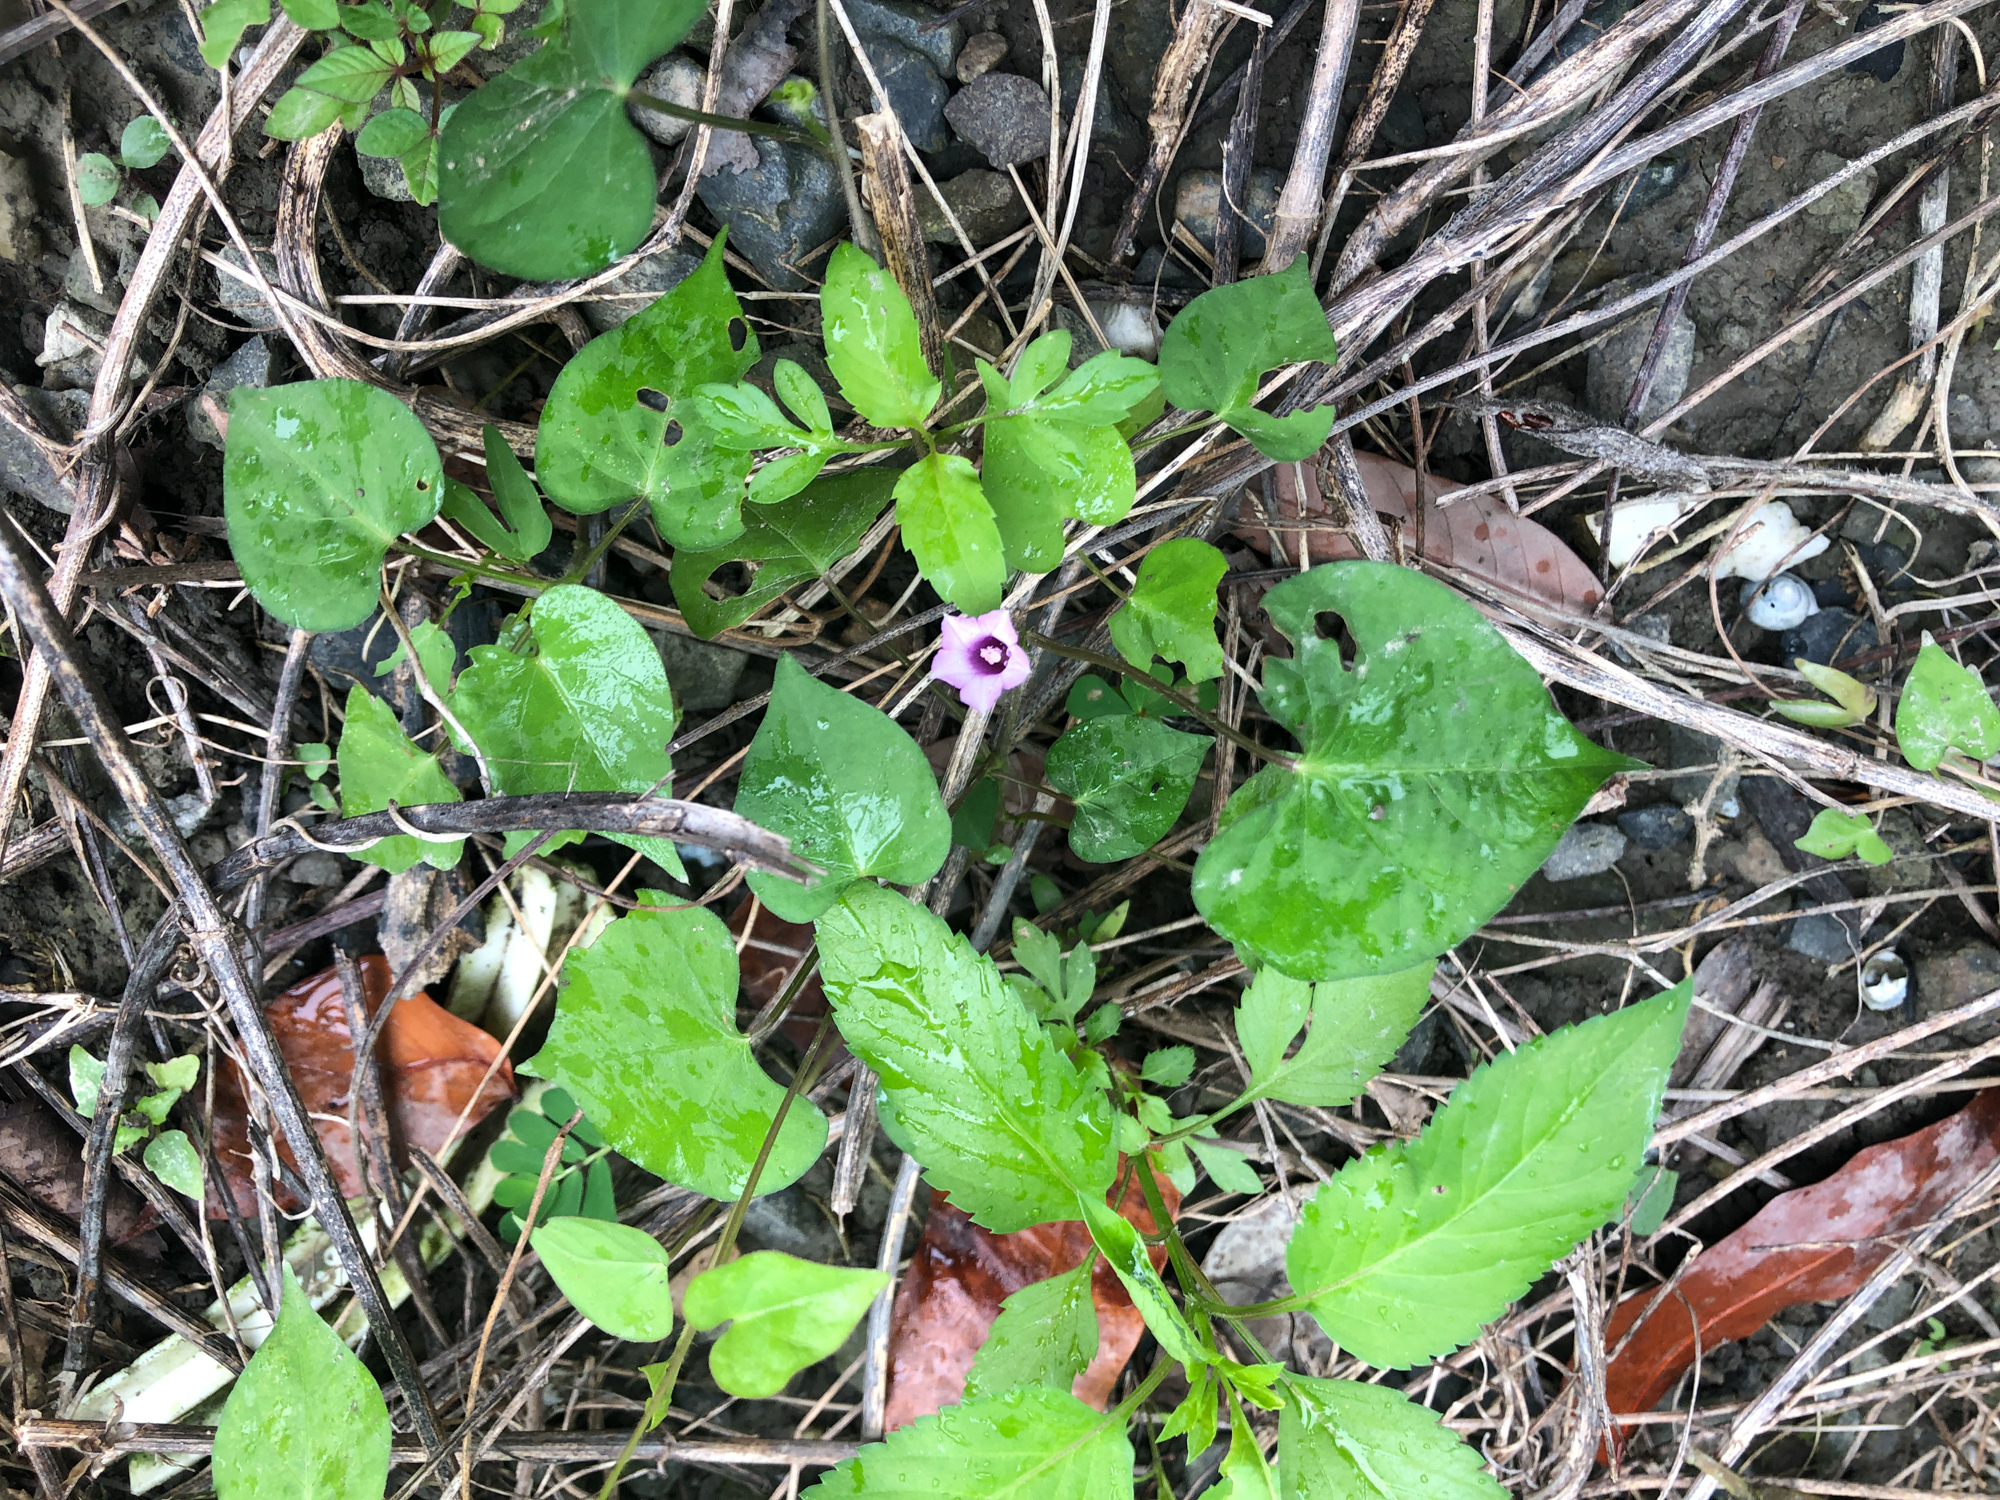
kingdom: Plantae
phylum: Tracheophyta
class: Magnoliopsida
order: Solanales
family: Convolvulaceae
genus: Ipomoea
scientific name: Ipomoea triloba
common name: Little-bell
